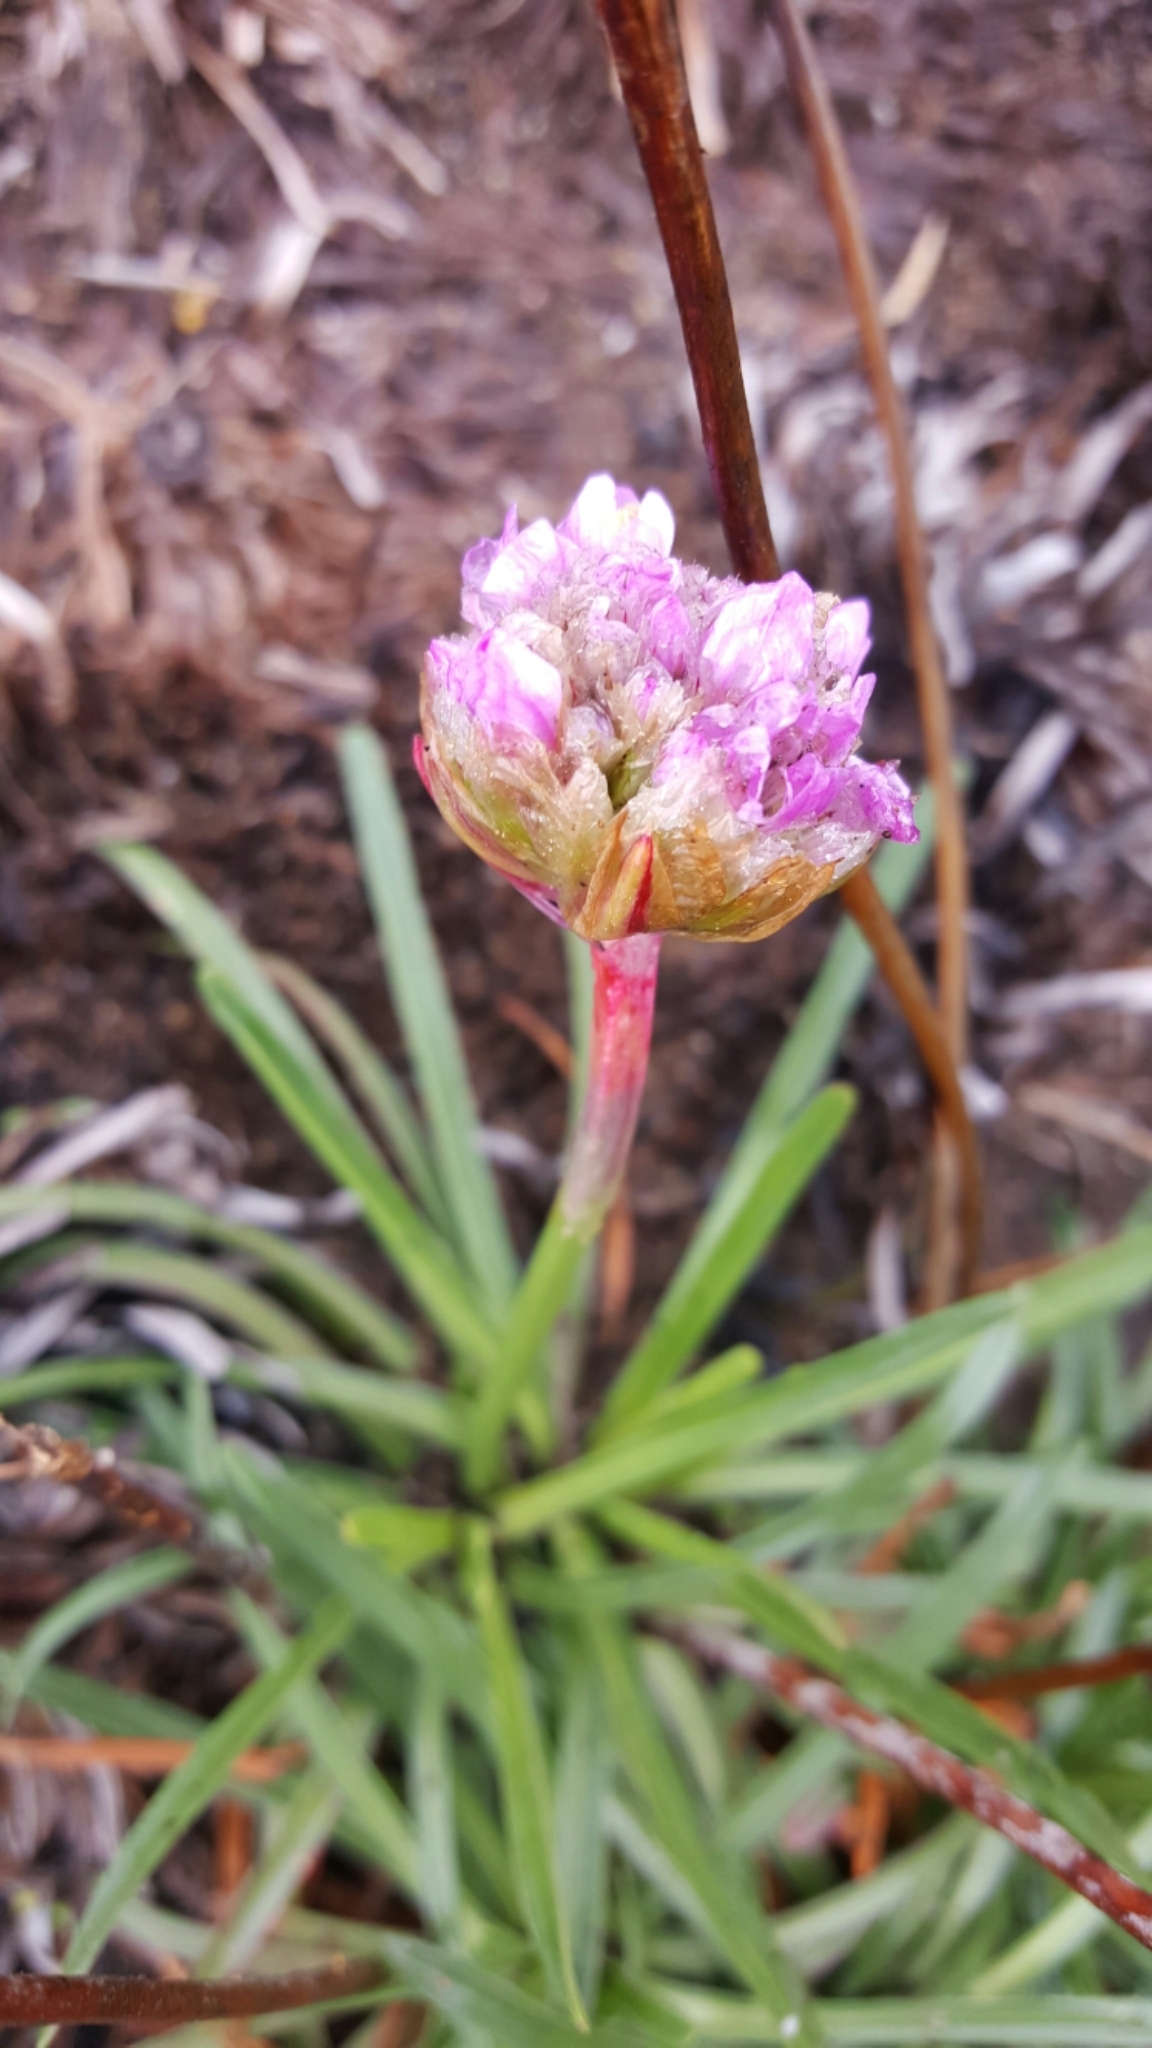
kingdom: Plantae
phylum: Tracheophyta
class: Magnoliopsida
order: Caryophyllales
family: Plumbaginaceae
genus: Armeria
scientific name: Armeria maritima
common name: Thrift
